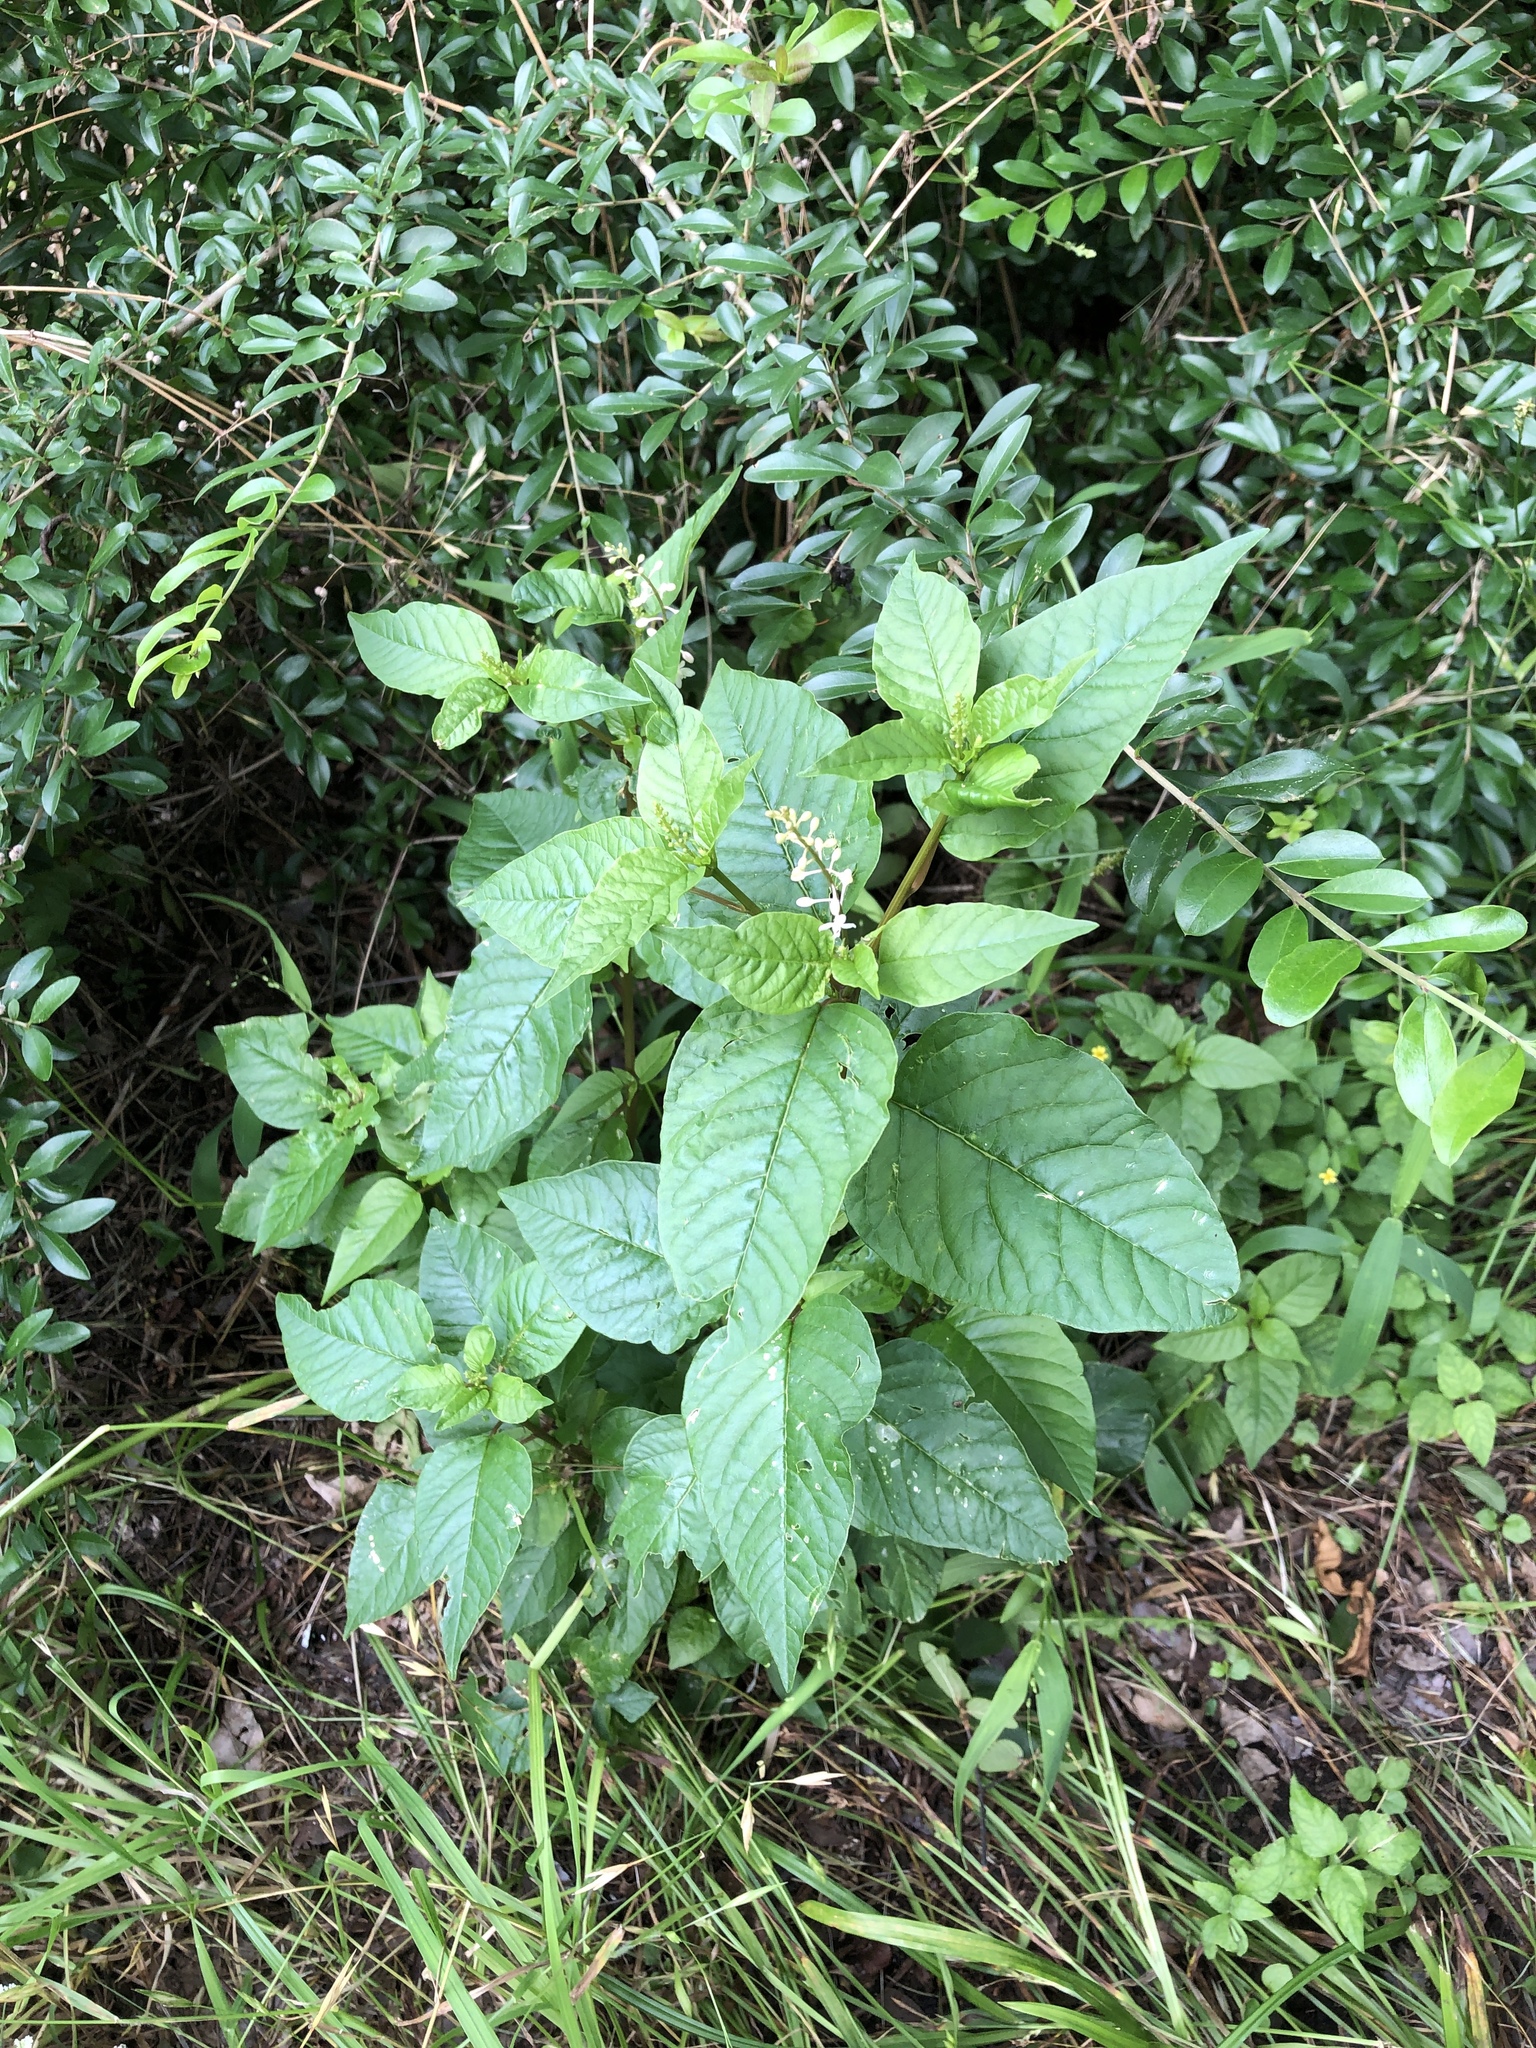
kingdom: Plantae
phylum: Tracheophyta
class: Magnoliopsida
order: Caryophyllales
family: Phytolaccaceae
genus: Rivina
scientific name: Rivina humilis
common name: Rougeplant
